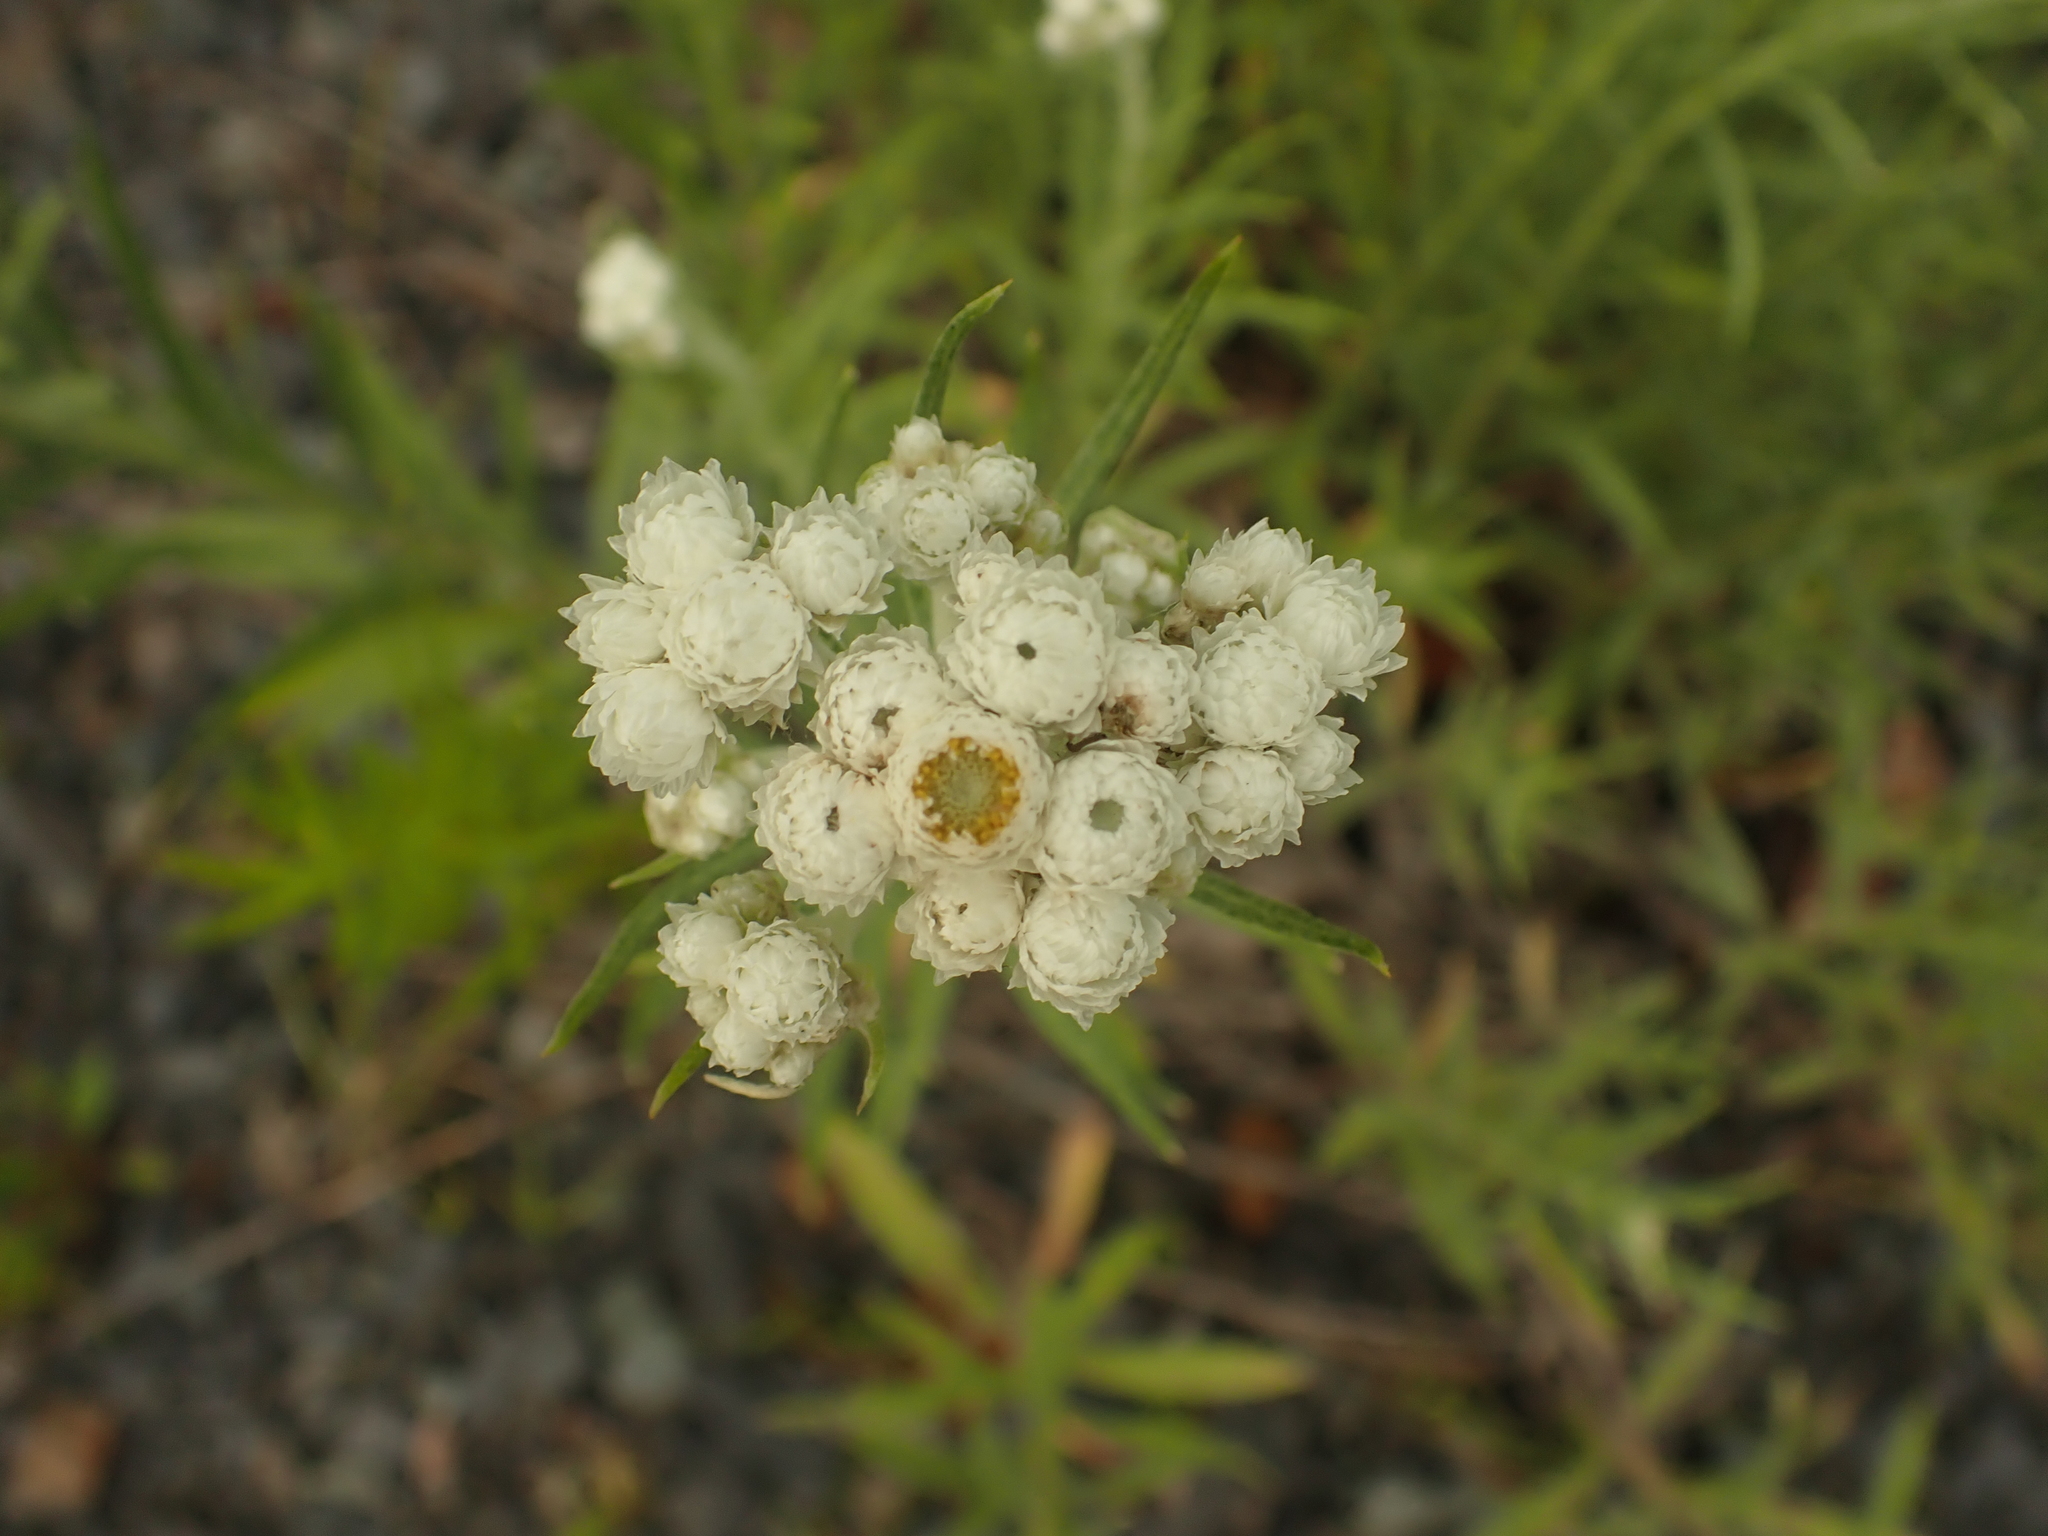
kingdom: Plantae
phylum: Tracheophyta
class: Magnoliopsida
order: Asterales
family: Asteraceae
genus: Anaphalis
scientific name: Anaphalis margaritacea
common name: Pearly everlasting
